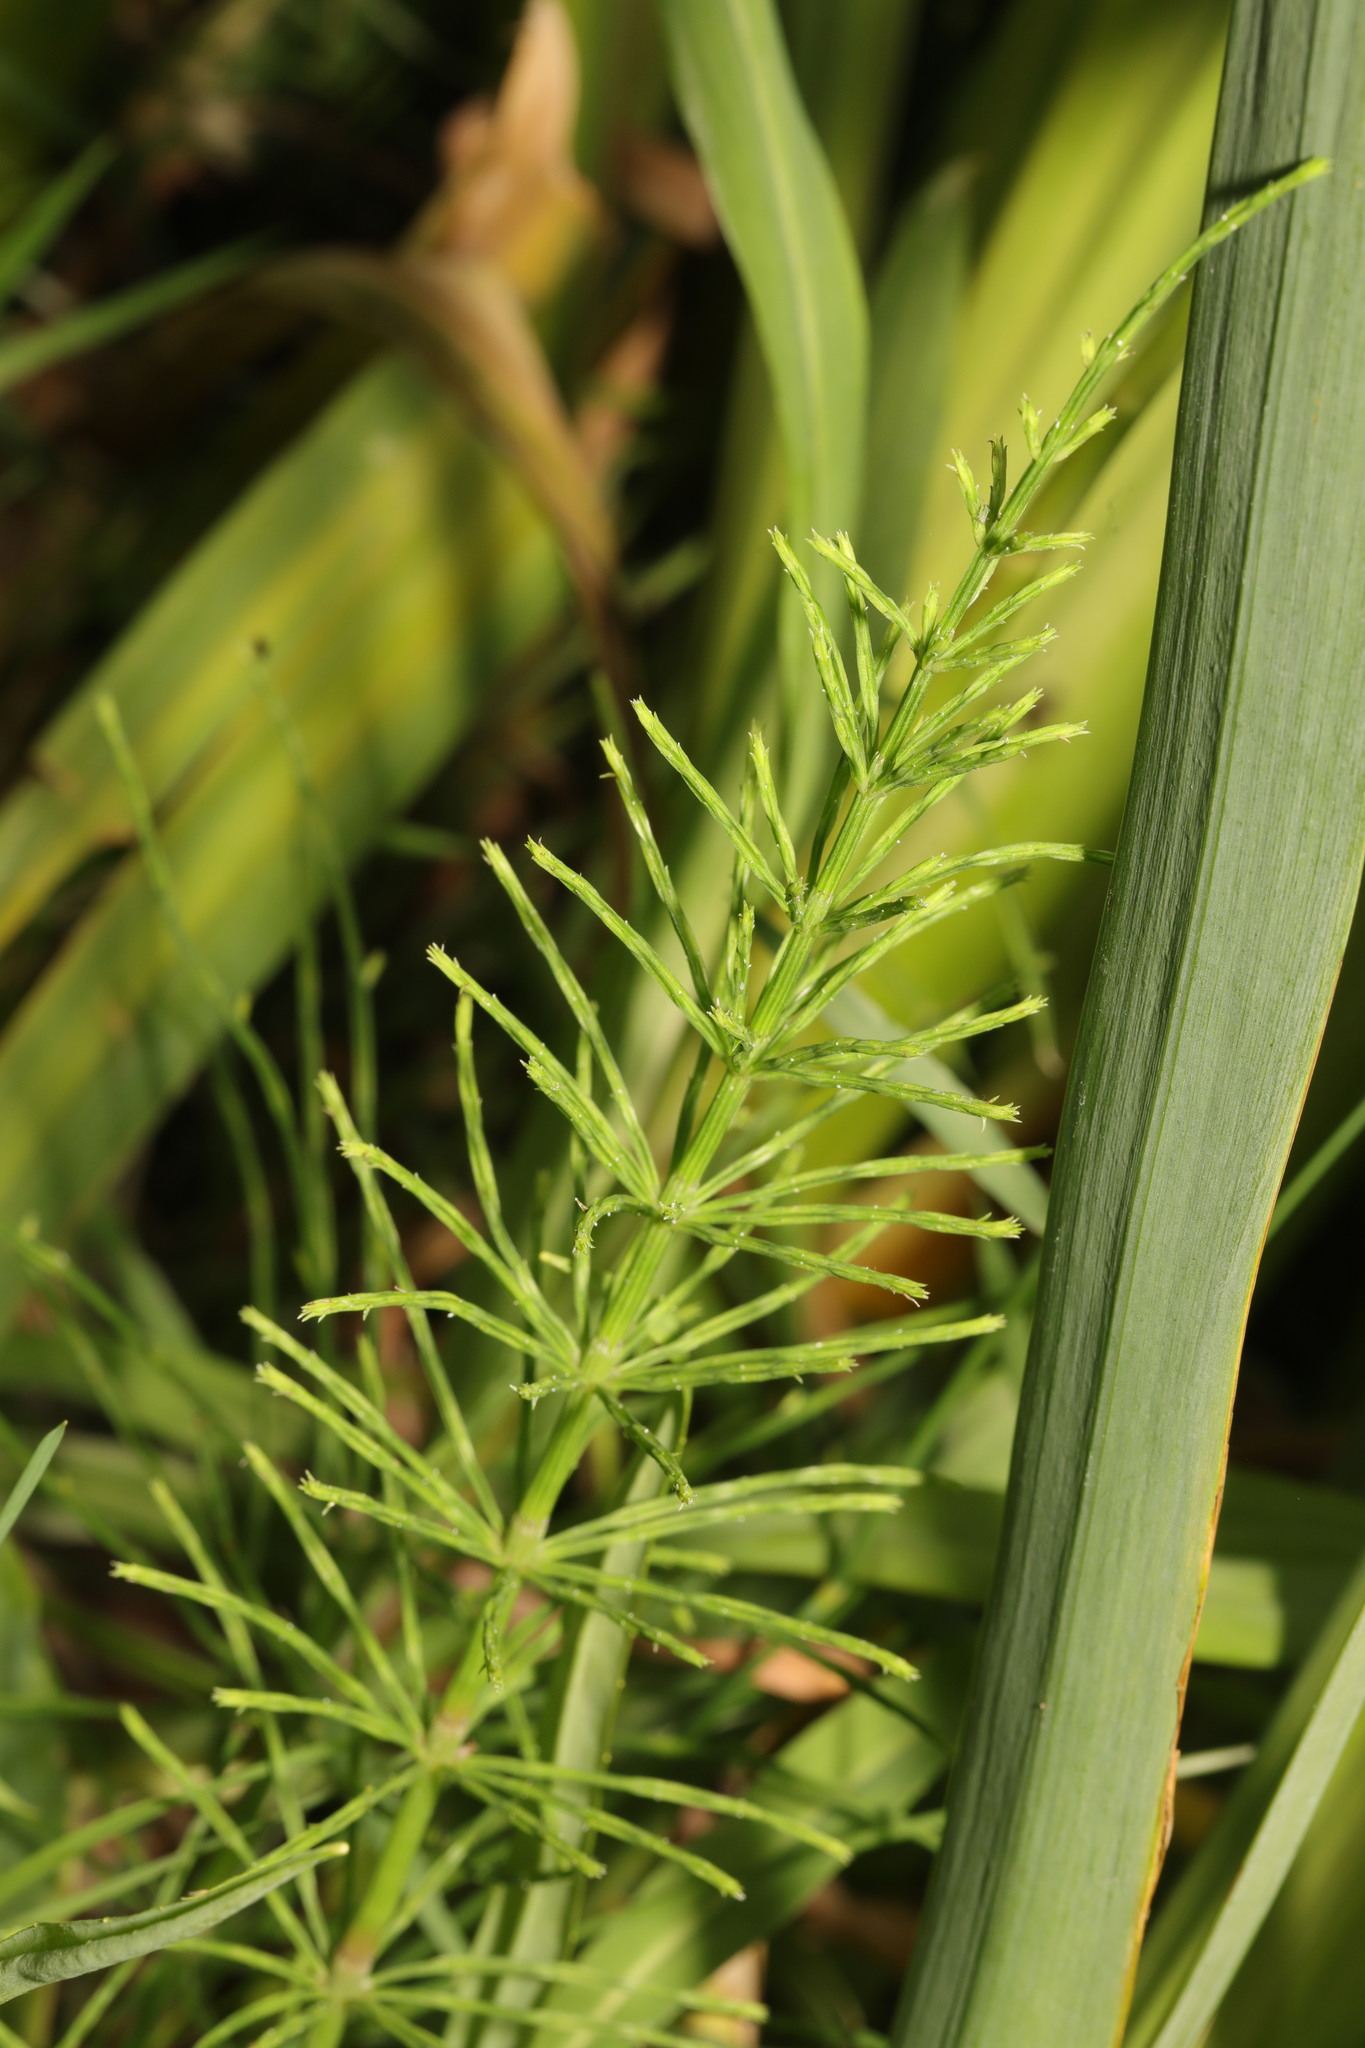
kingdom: Plantae
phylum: Tracheophyta
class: Polypodiopsida
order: Equisetales
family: Equisetaceae
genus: Equisetum
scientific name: Equisetum arvense
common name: Field horsetail
